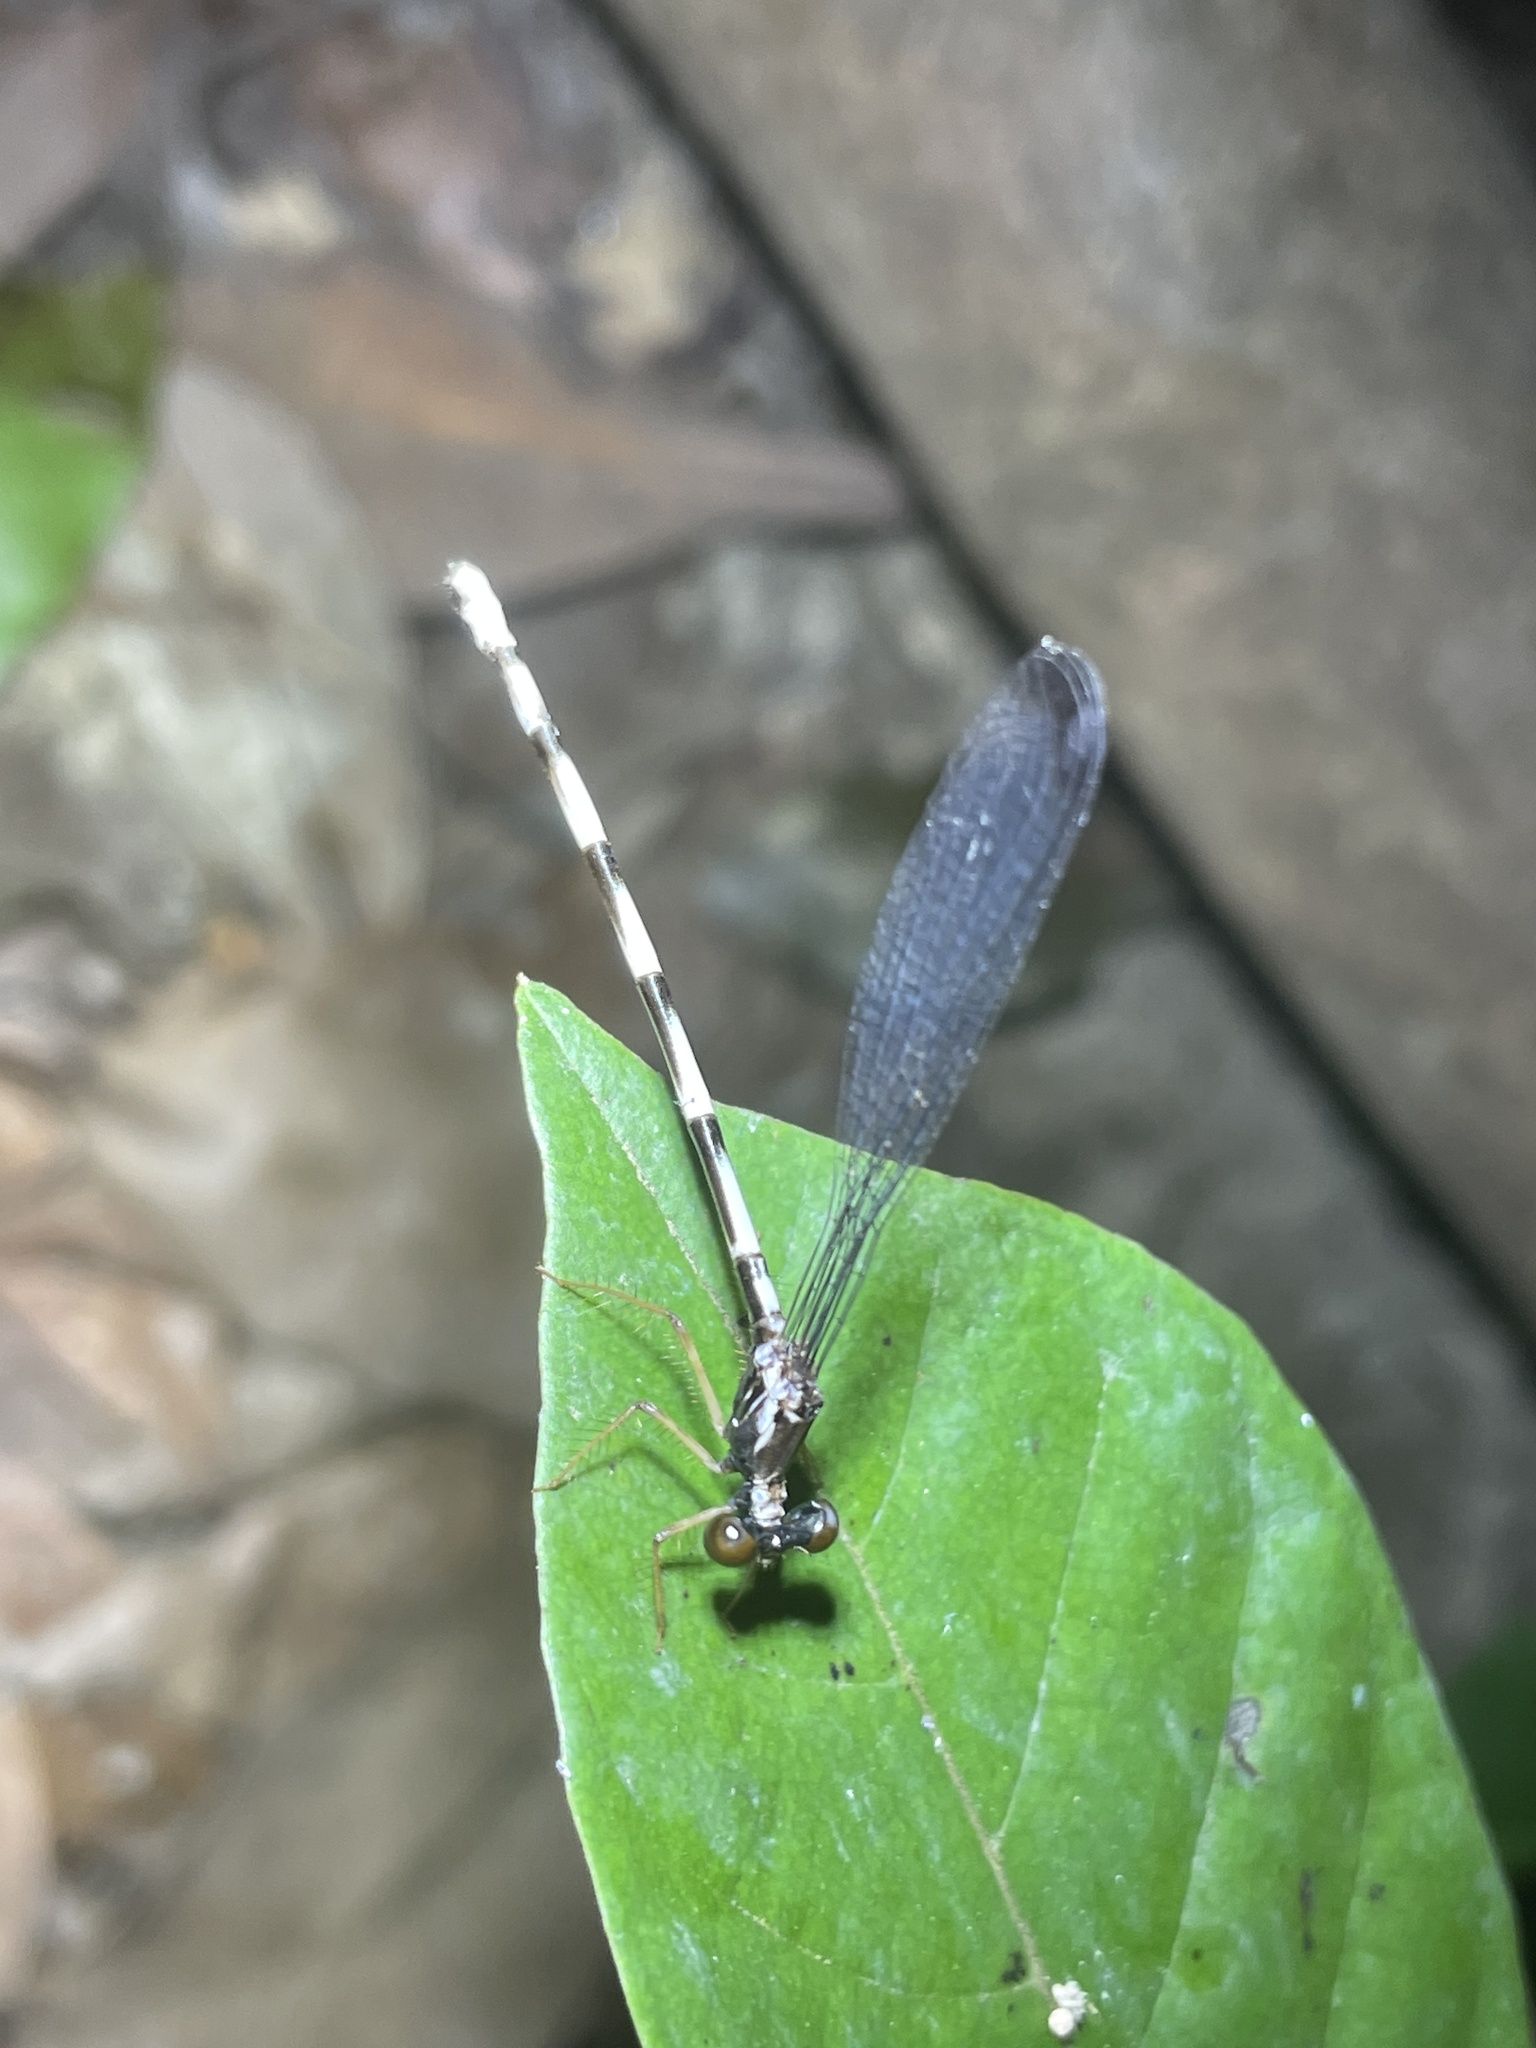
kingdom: Animalia
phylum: Arthropoda
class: Insecta
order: Odonata
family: Thaumatoneuridae
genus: Agriomorpha
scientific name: Agriomorpha fusca
